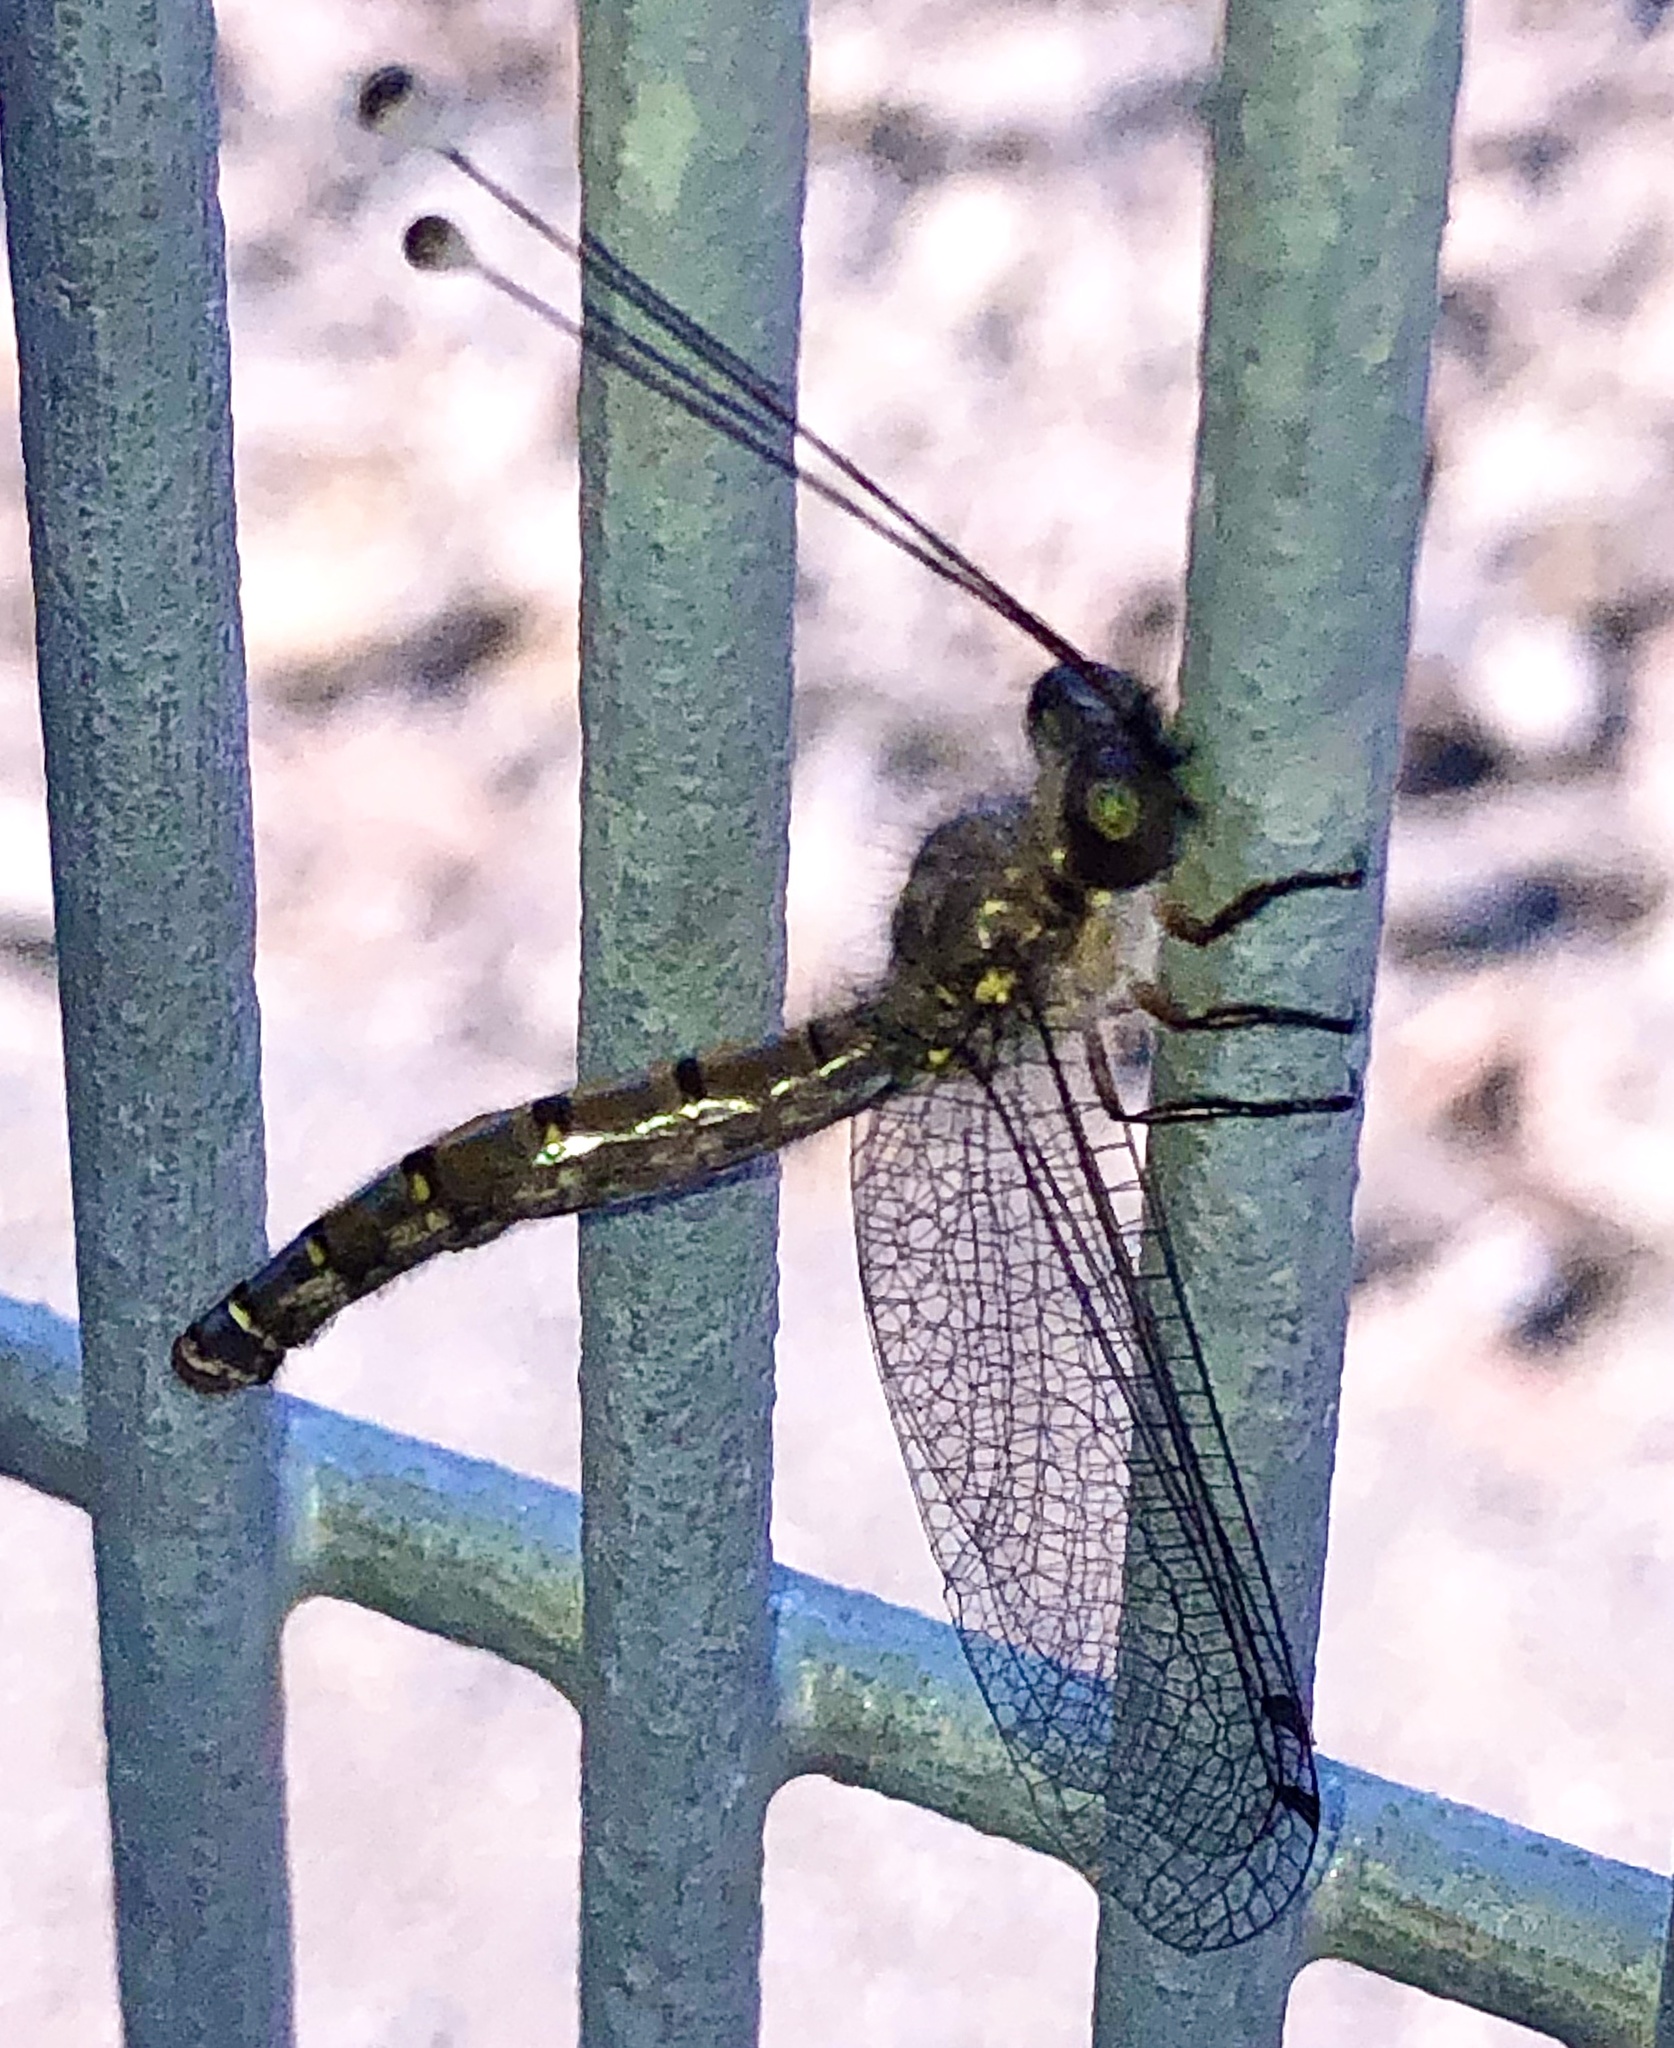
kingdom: Animalia
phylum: Arthropoda
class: Insecta
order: Neuroptera
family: Ascalaphidae
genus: Megacmonotus
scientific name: Megacmonotus magnus
